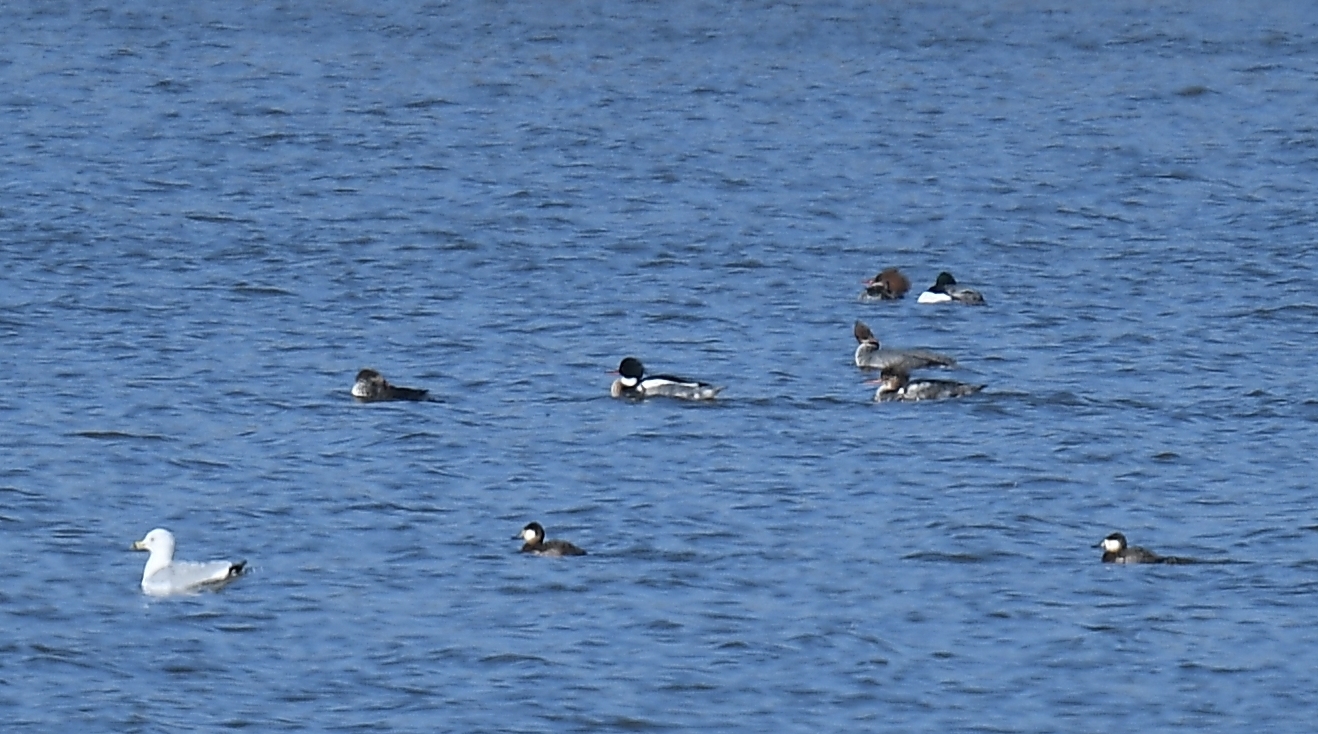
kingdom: Animalia
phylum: Chordata
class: Aves
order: Anseriformes
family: Anatidae
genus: Mergus
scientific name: Mergus serrator
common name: Red-breasted merganser
